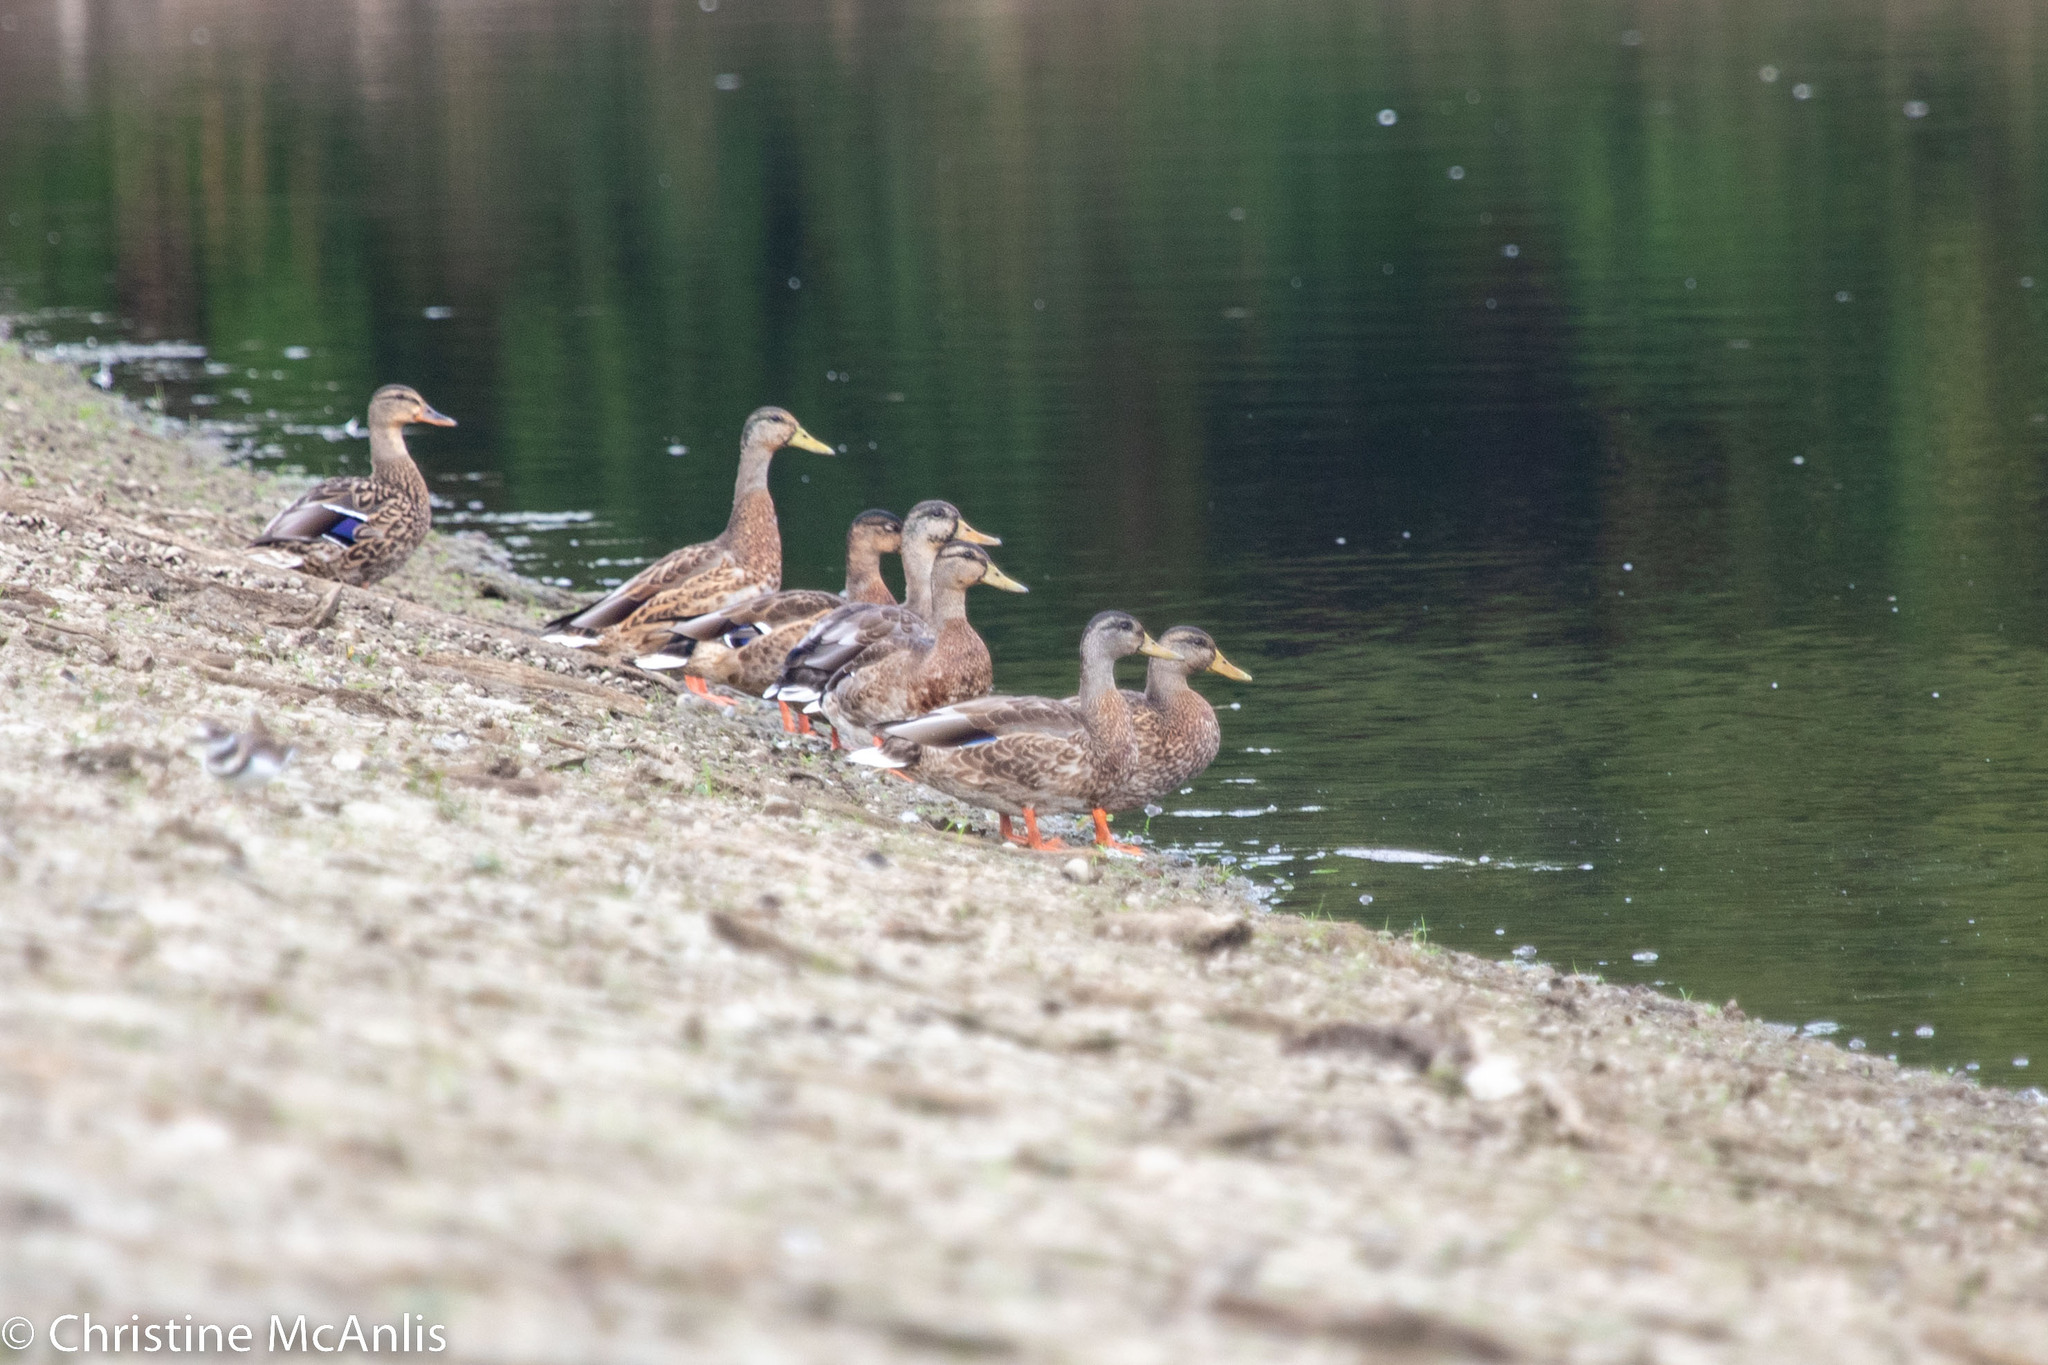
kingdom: Animalia
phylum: Chordata
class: Aves
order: Anseriformes
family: Anatidae
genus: Anas
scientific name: Anas platyrhynchos
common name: Mallard
